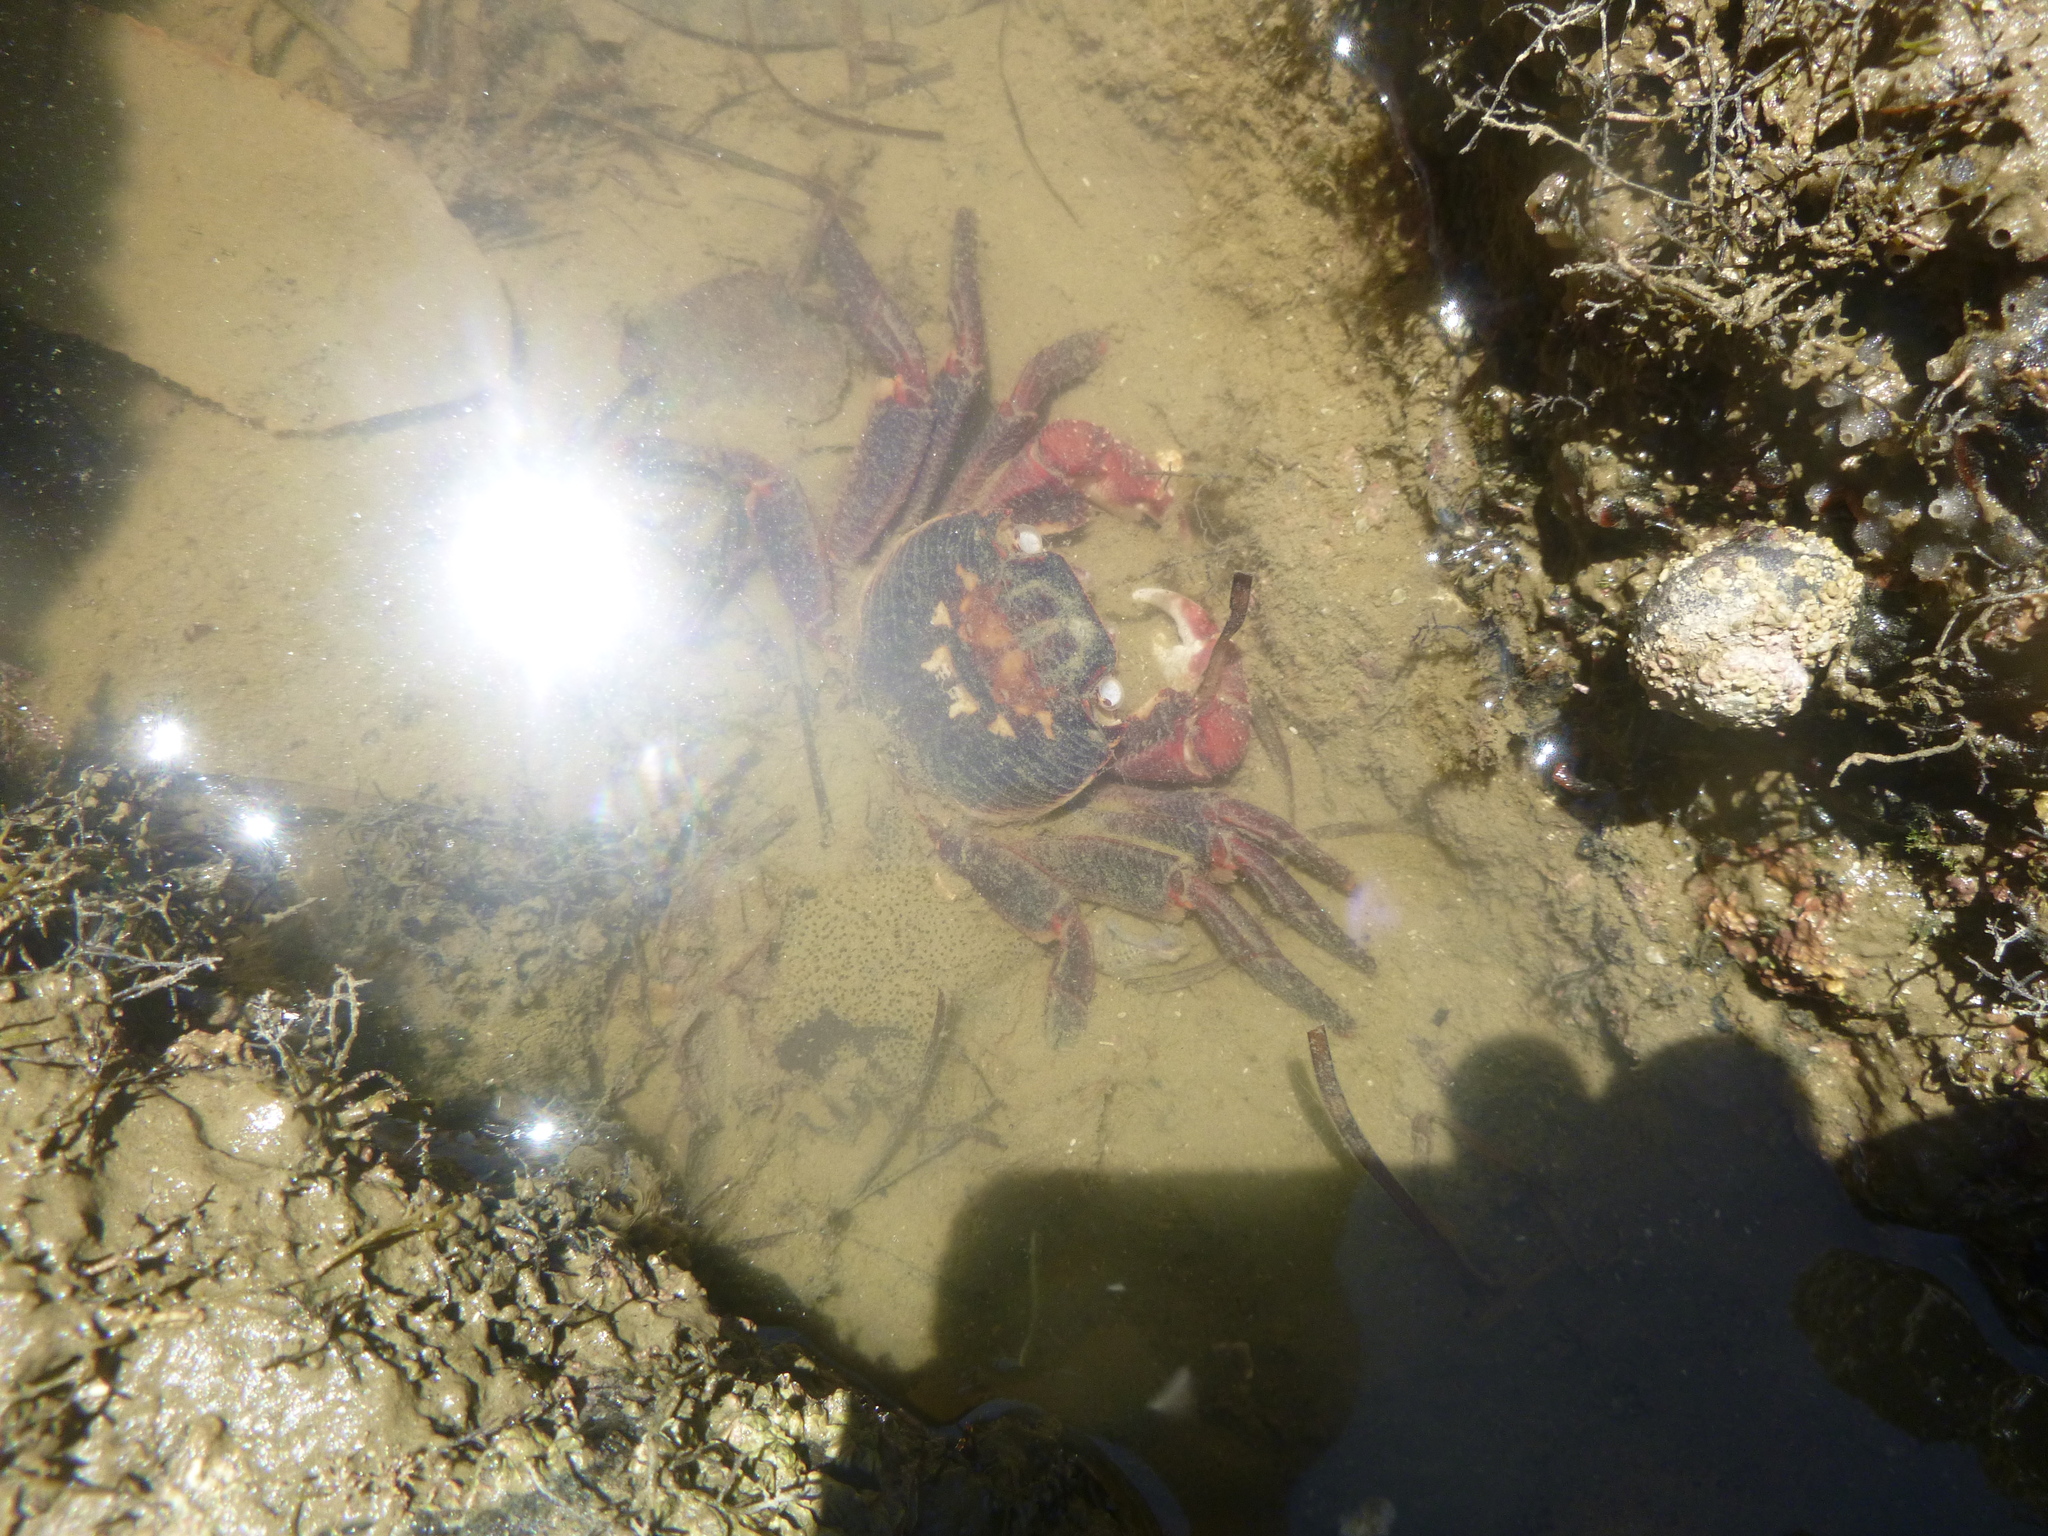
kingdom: Animalia
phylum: Arthropoda
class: Malacostraca
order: Decapoda
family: Grapsidae
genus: Leptograpsus
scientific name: Leptograpsus variegatus
